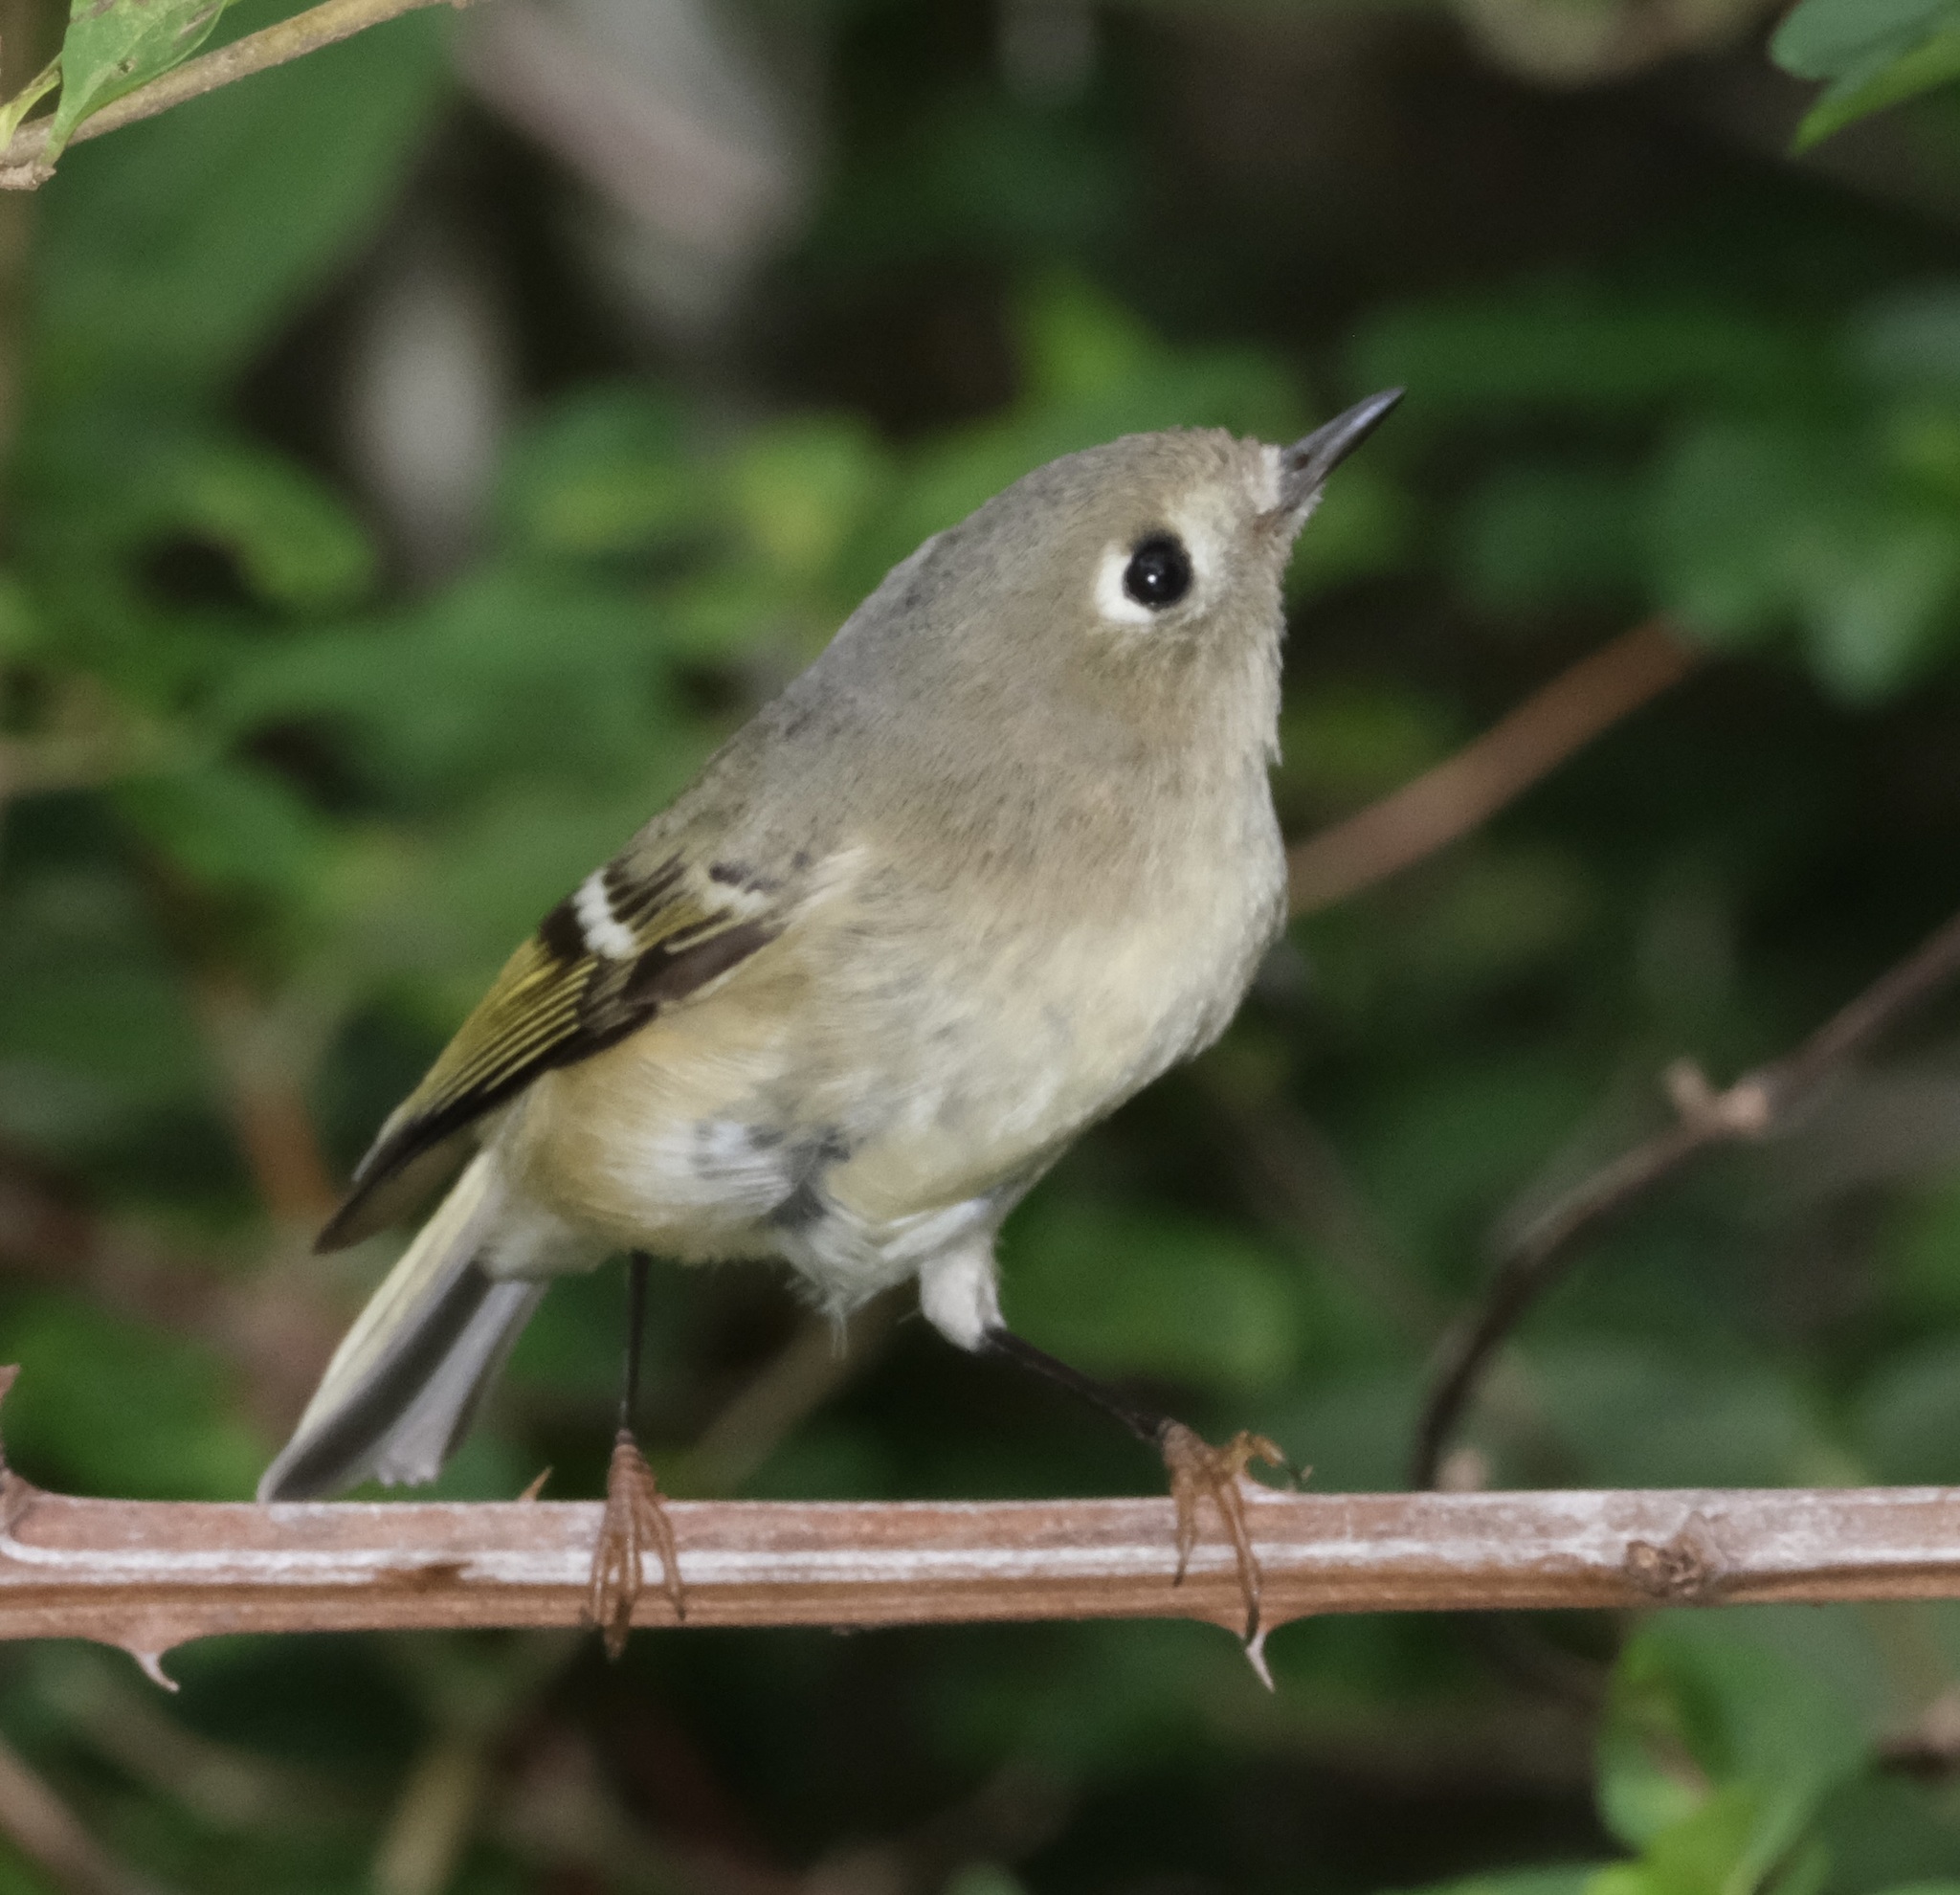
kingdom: Animalia
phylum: Chordata
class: Aves
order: Passeriformes
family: Regulidae
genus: Regulus
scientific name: Regulus calendula
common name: Ruby-crowned kinglet
